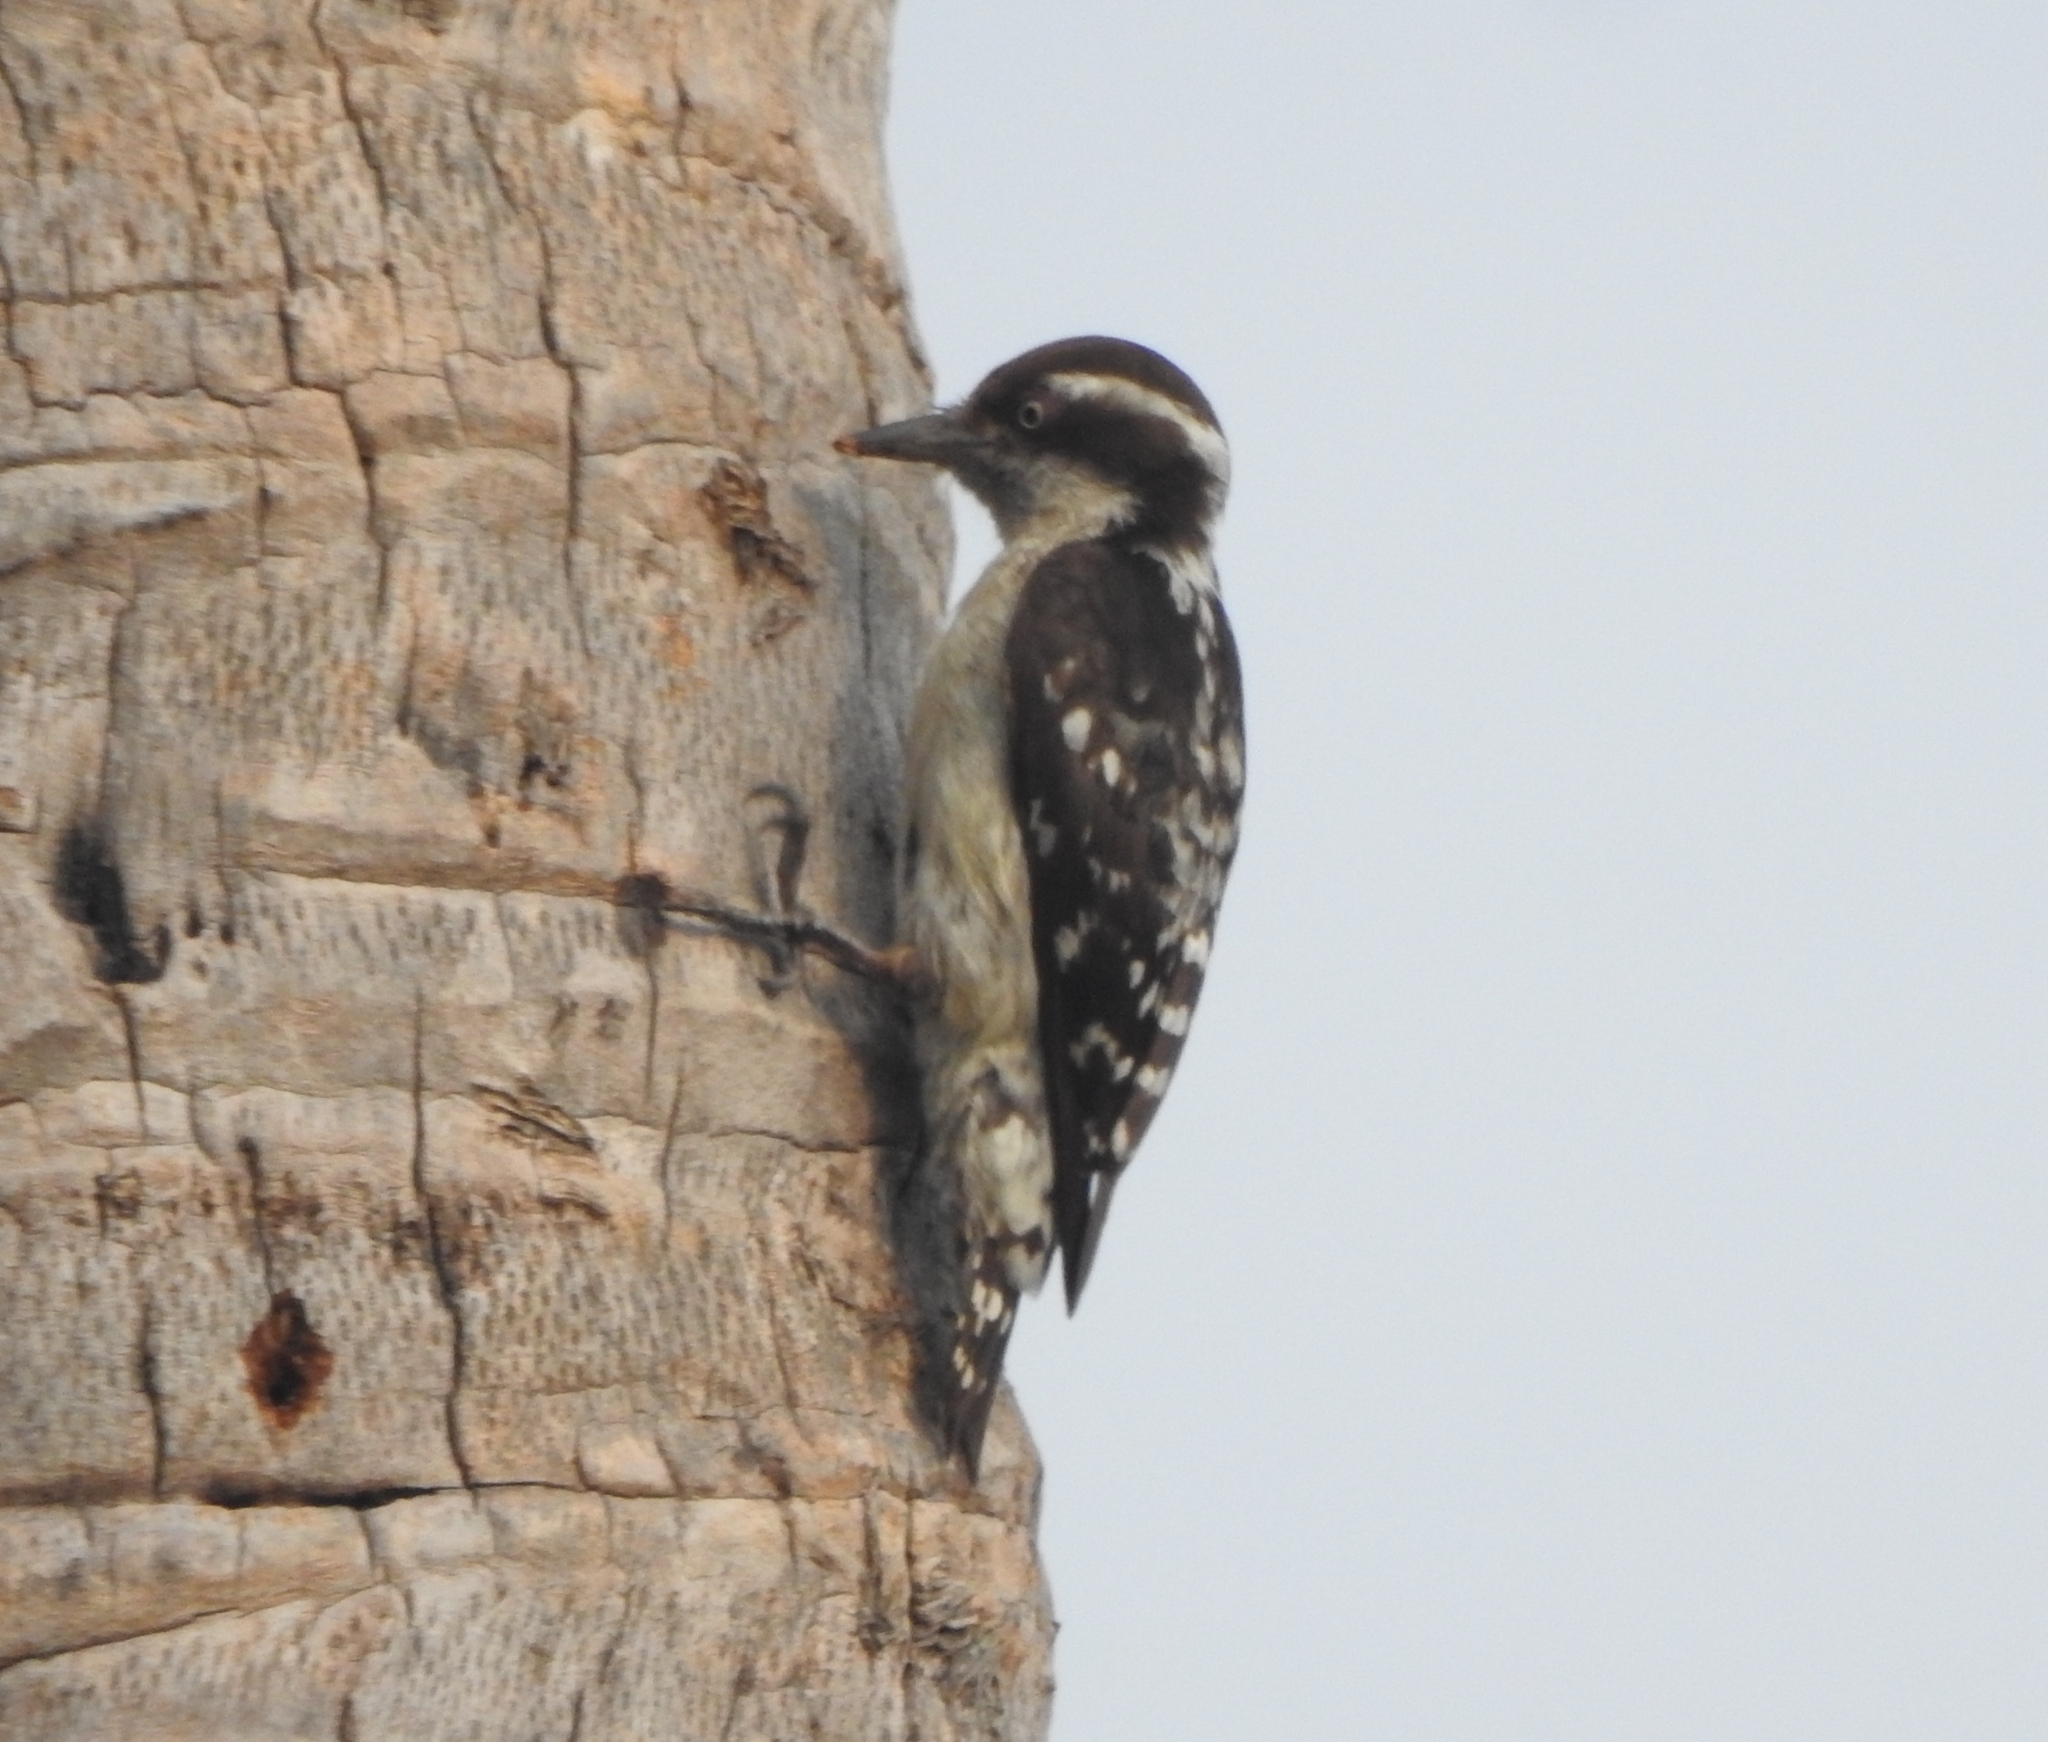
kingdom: Animalia
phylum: Chordata
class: Aves
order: Piciformes
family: Picidae
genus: Yungipicus
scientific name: Yungipicus nanus
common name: Brown-capped pygmy woodpecker
